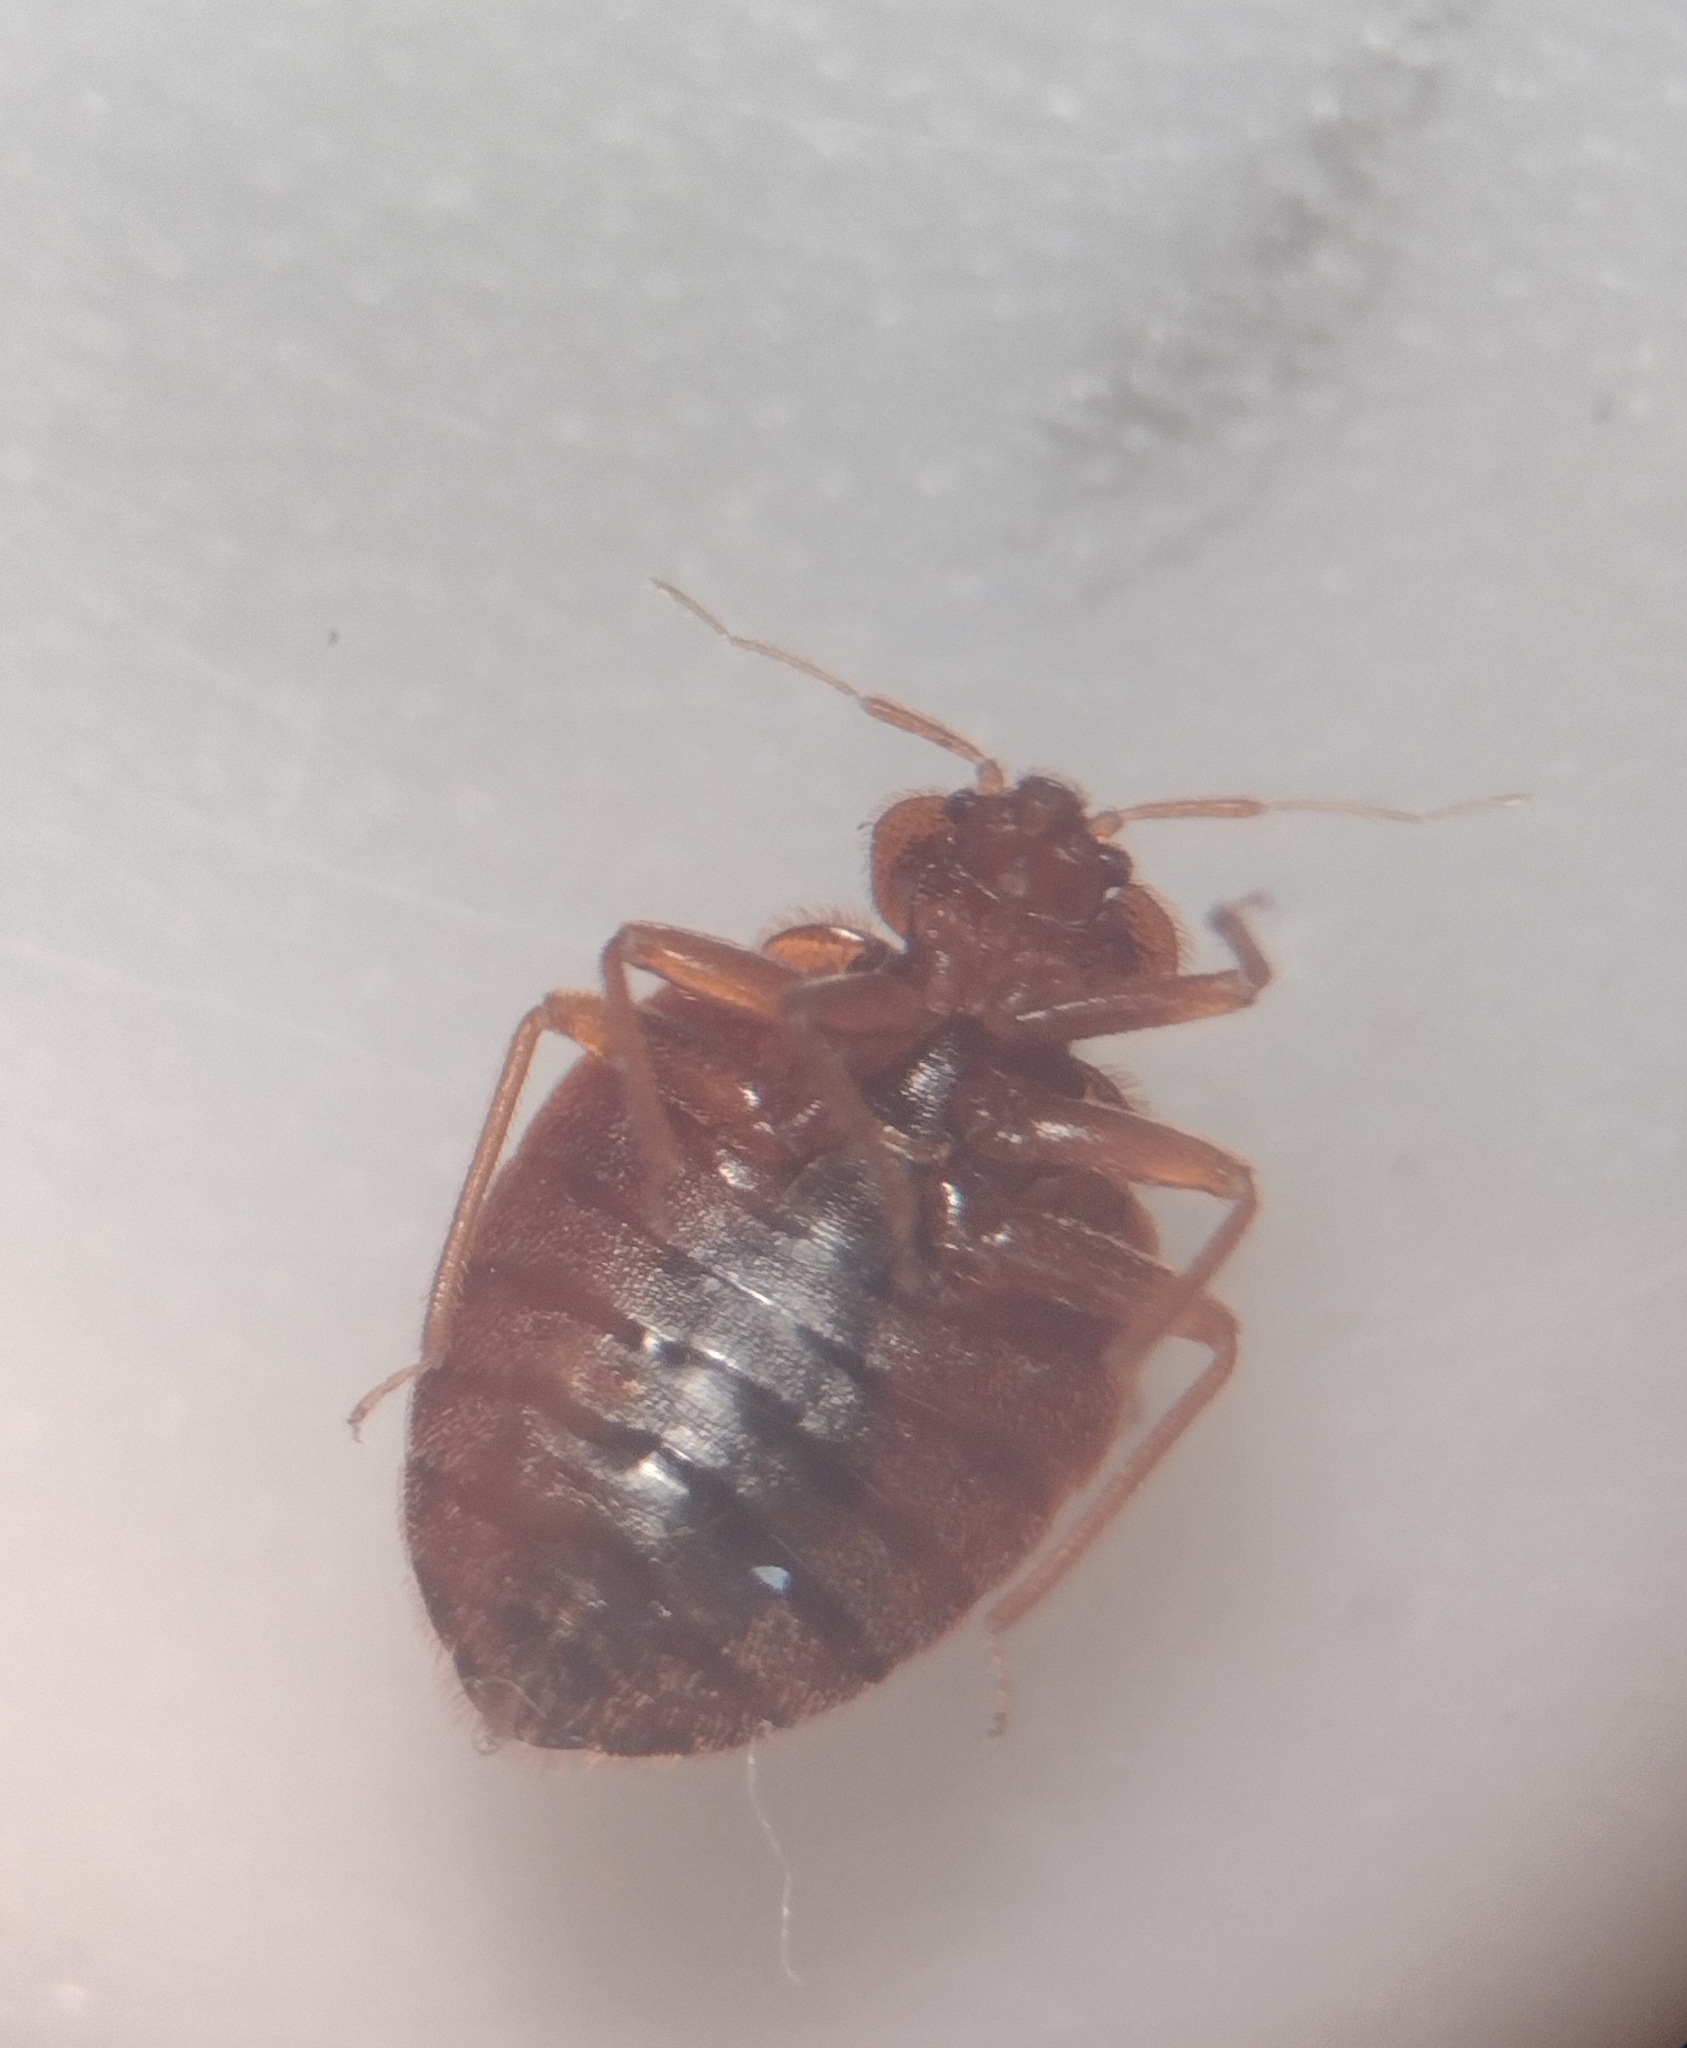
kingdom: Animalia
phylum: Arthropoda
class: Insecta
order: Hemiptera
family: Cimicidae
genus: Cimex
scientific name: Cimex lectularius
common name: Bed bug
